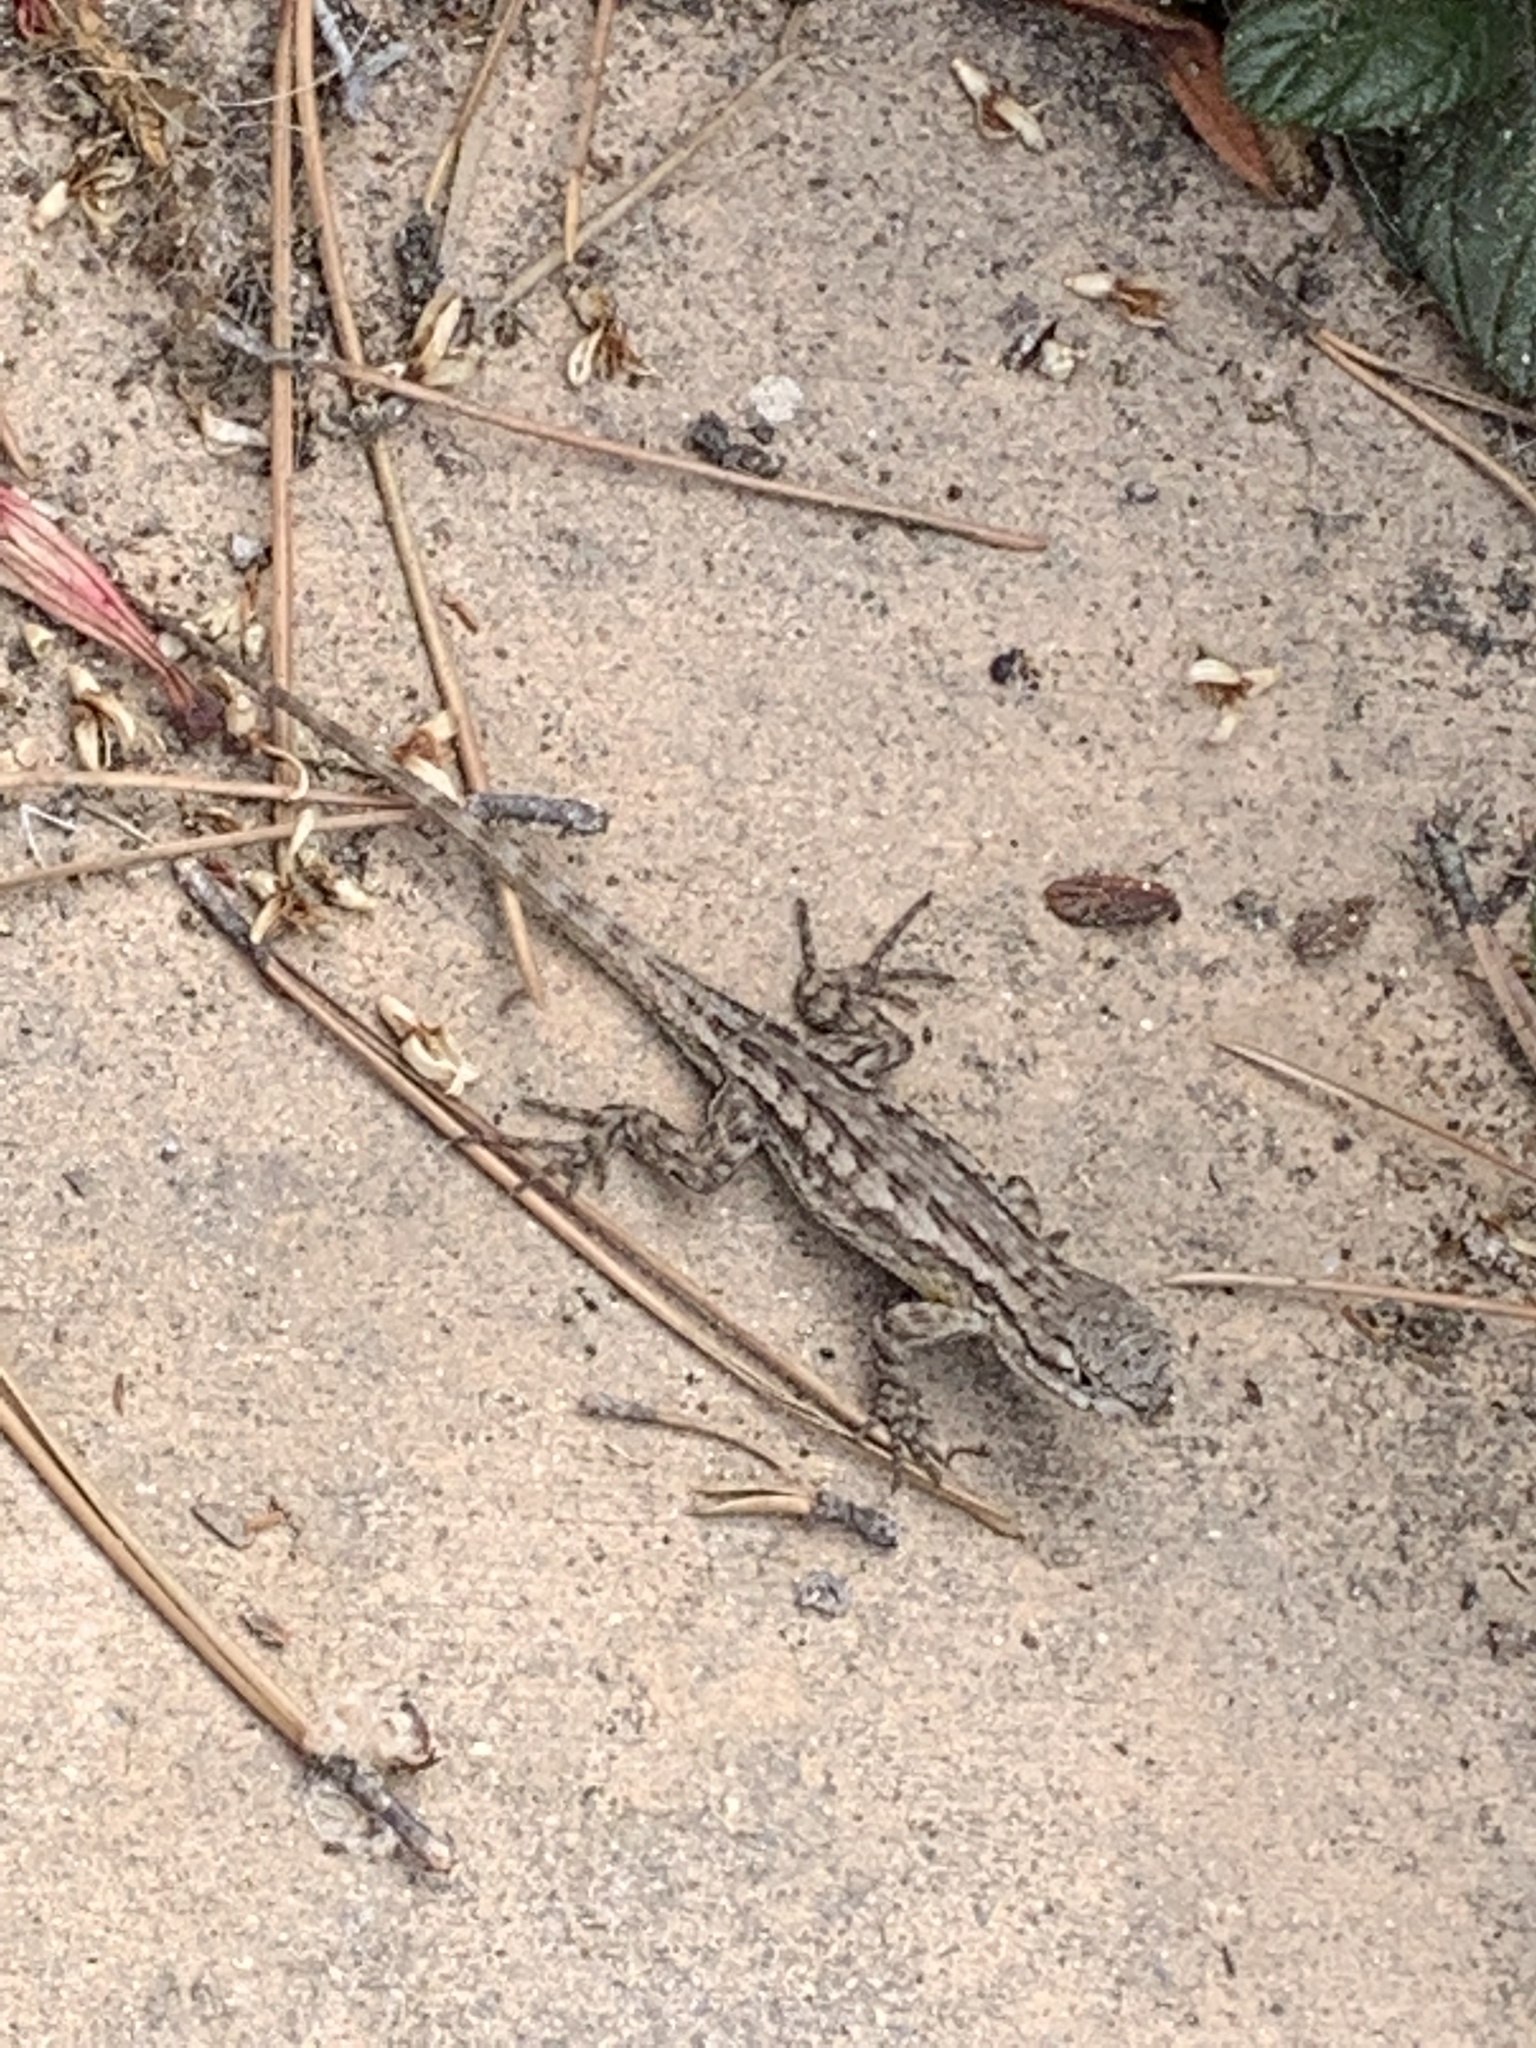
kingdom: Animalia
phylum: Chordata
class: Squamata
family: Phrynosomatidae
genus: Sceloporus
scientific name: Sceloporus occidentalis
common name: Western fence lizard
